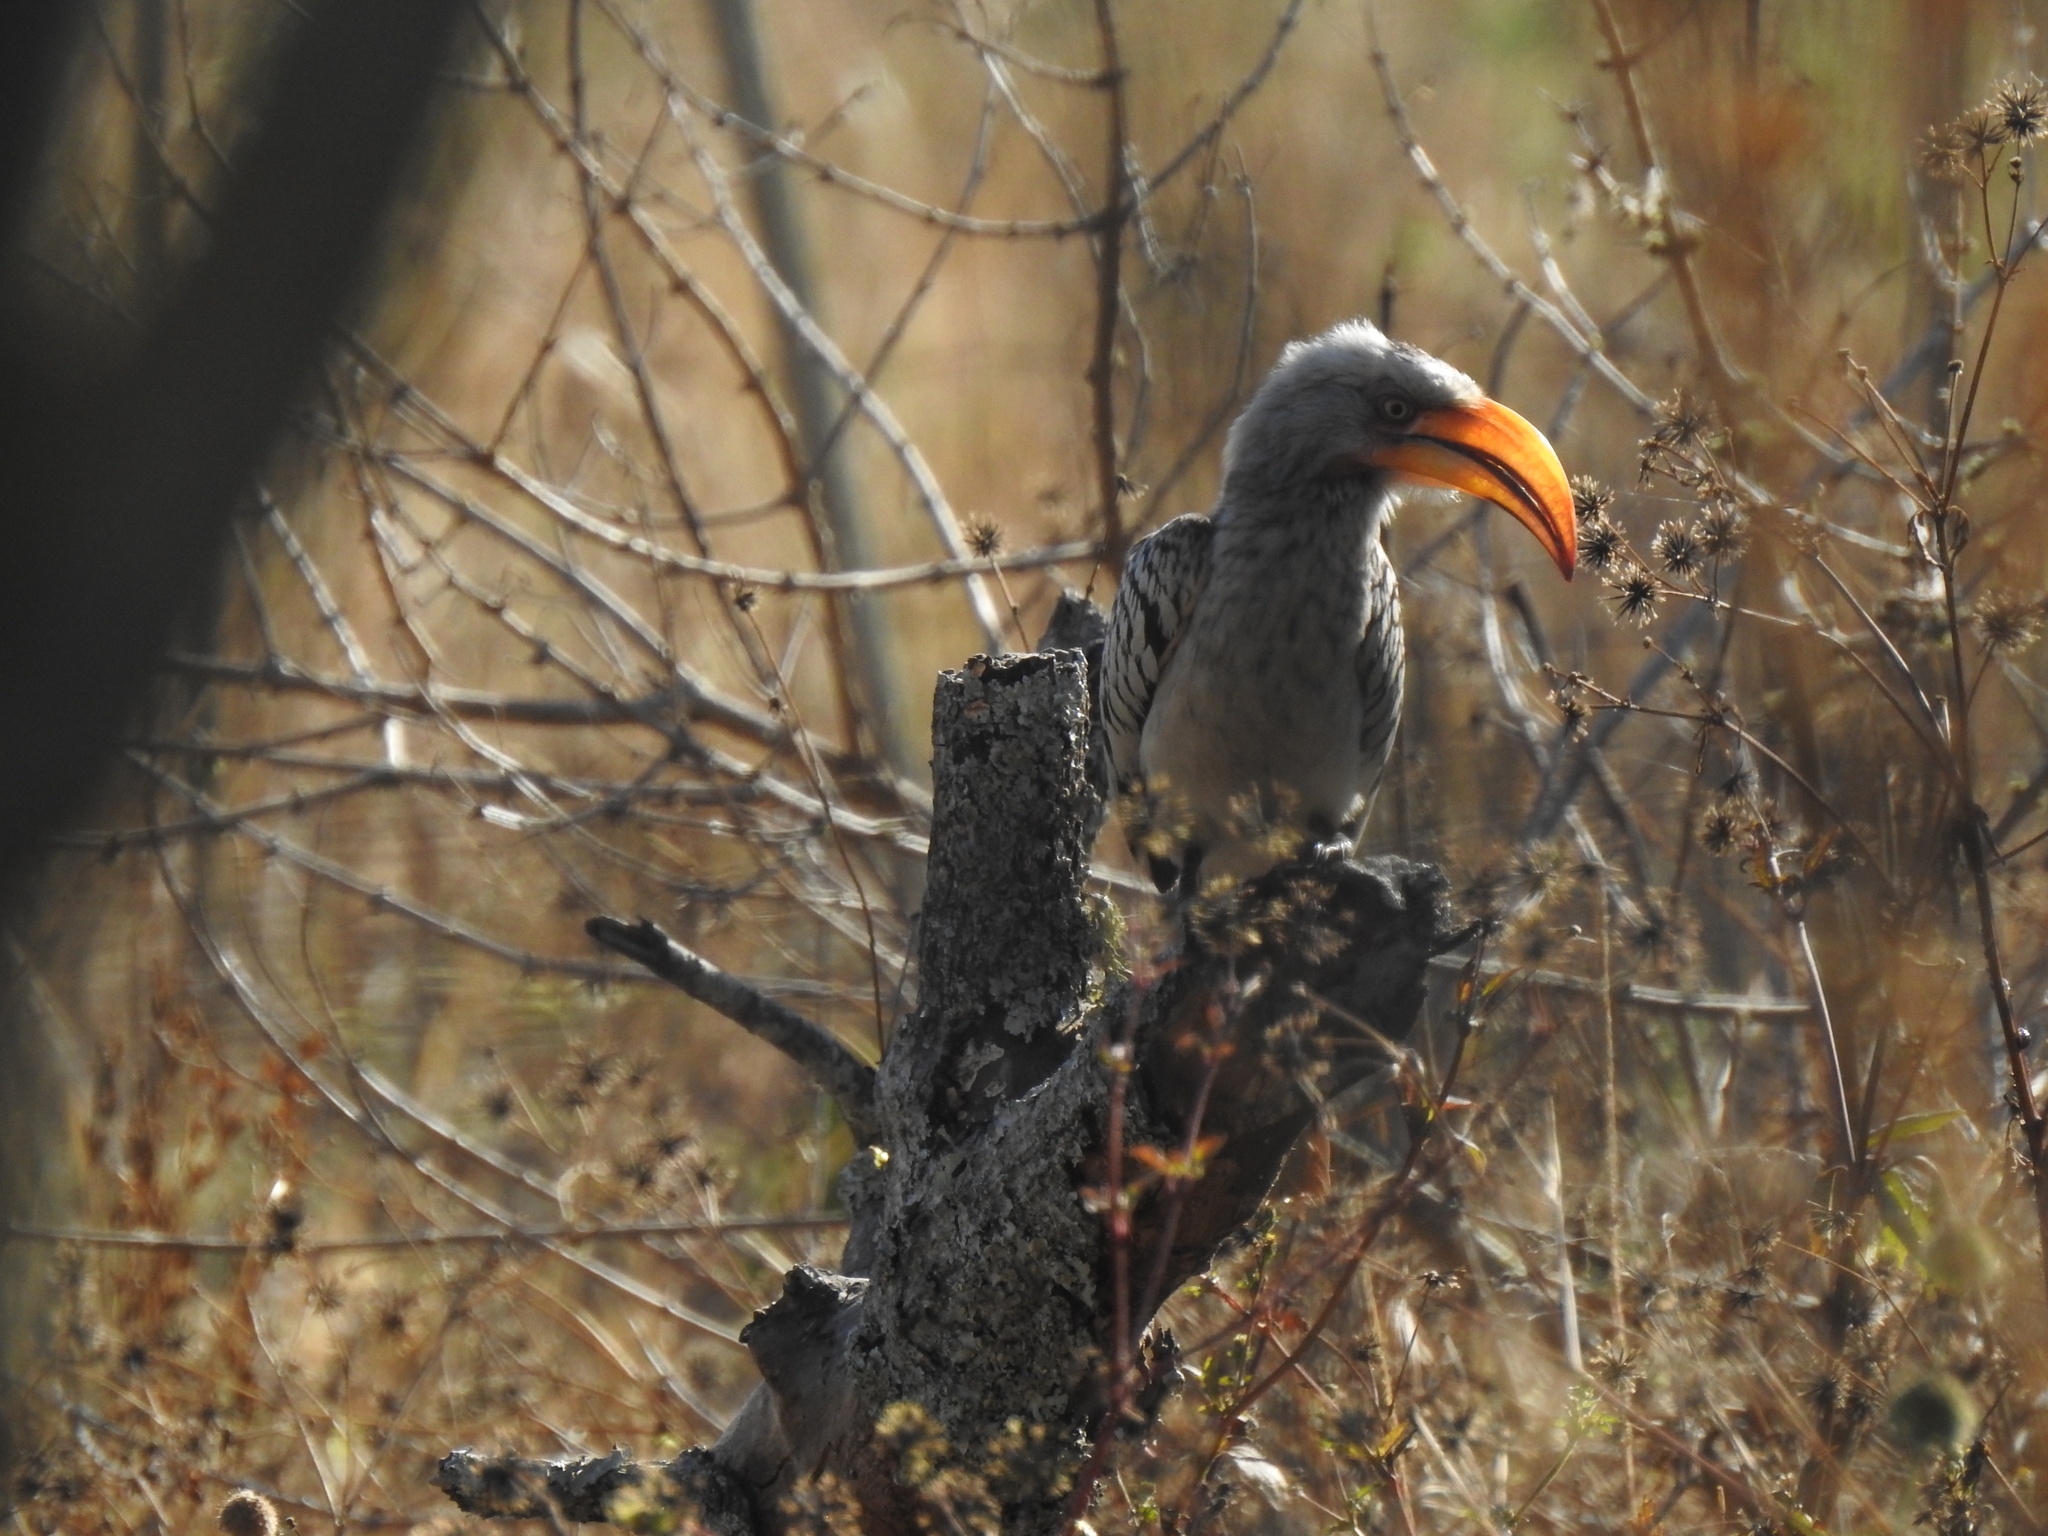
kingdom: Animalia
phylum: Chordata
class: Aves
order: Bucerotiformes
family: Bucerotidae
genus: Tockus
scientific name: Tockus leucomelas
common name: Southern yellow-billed hornbill
